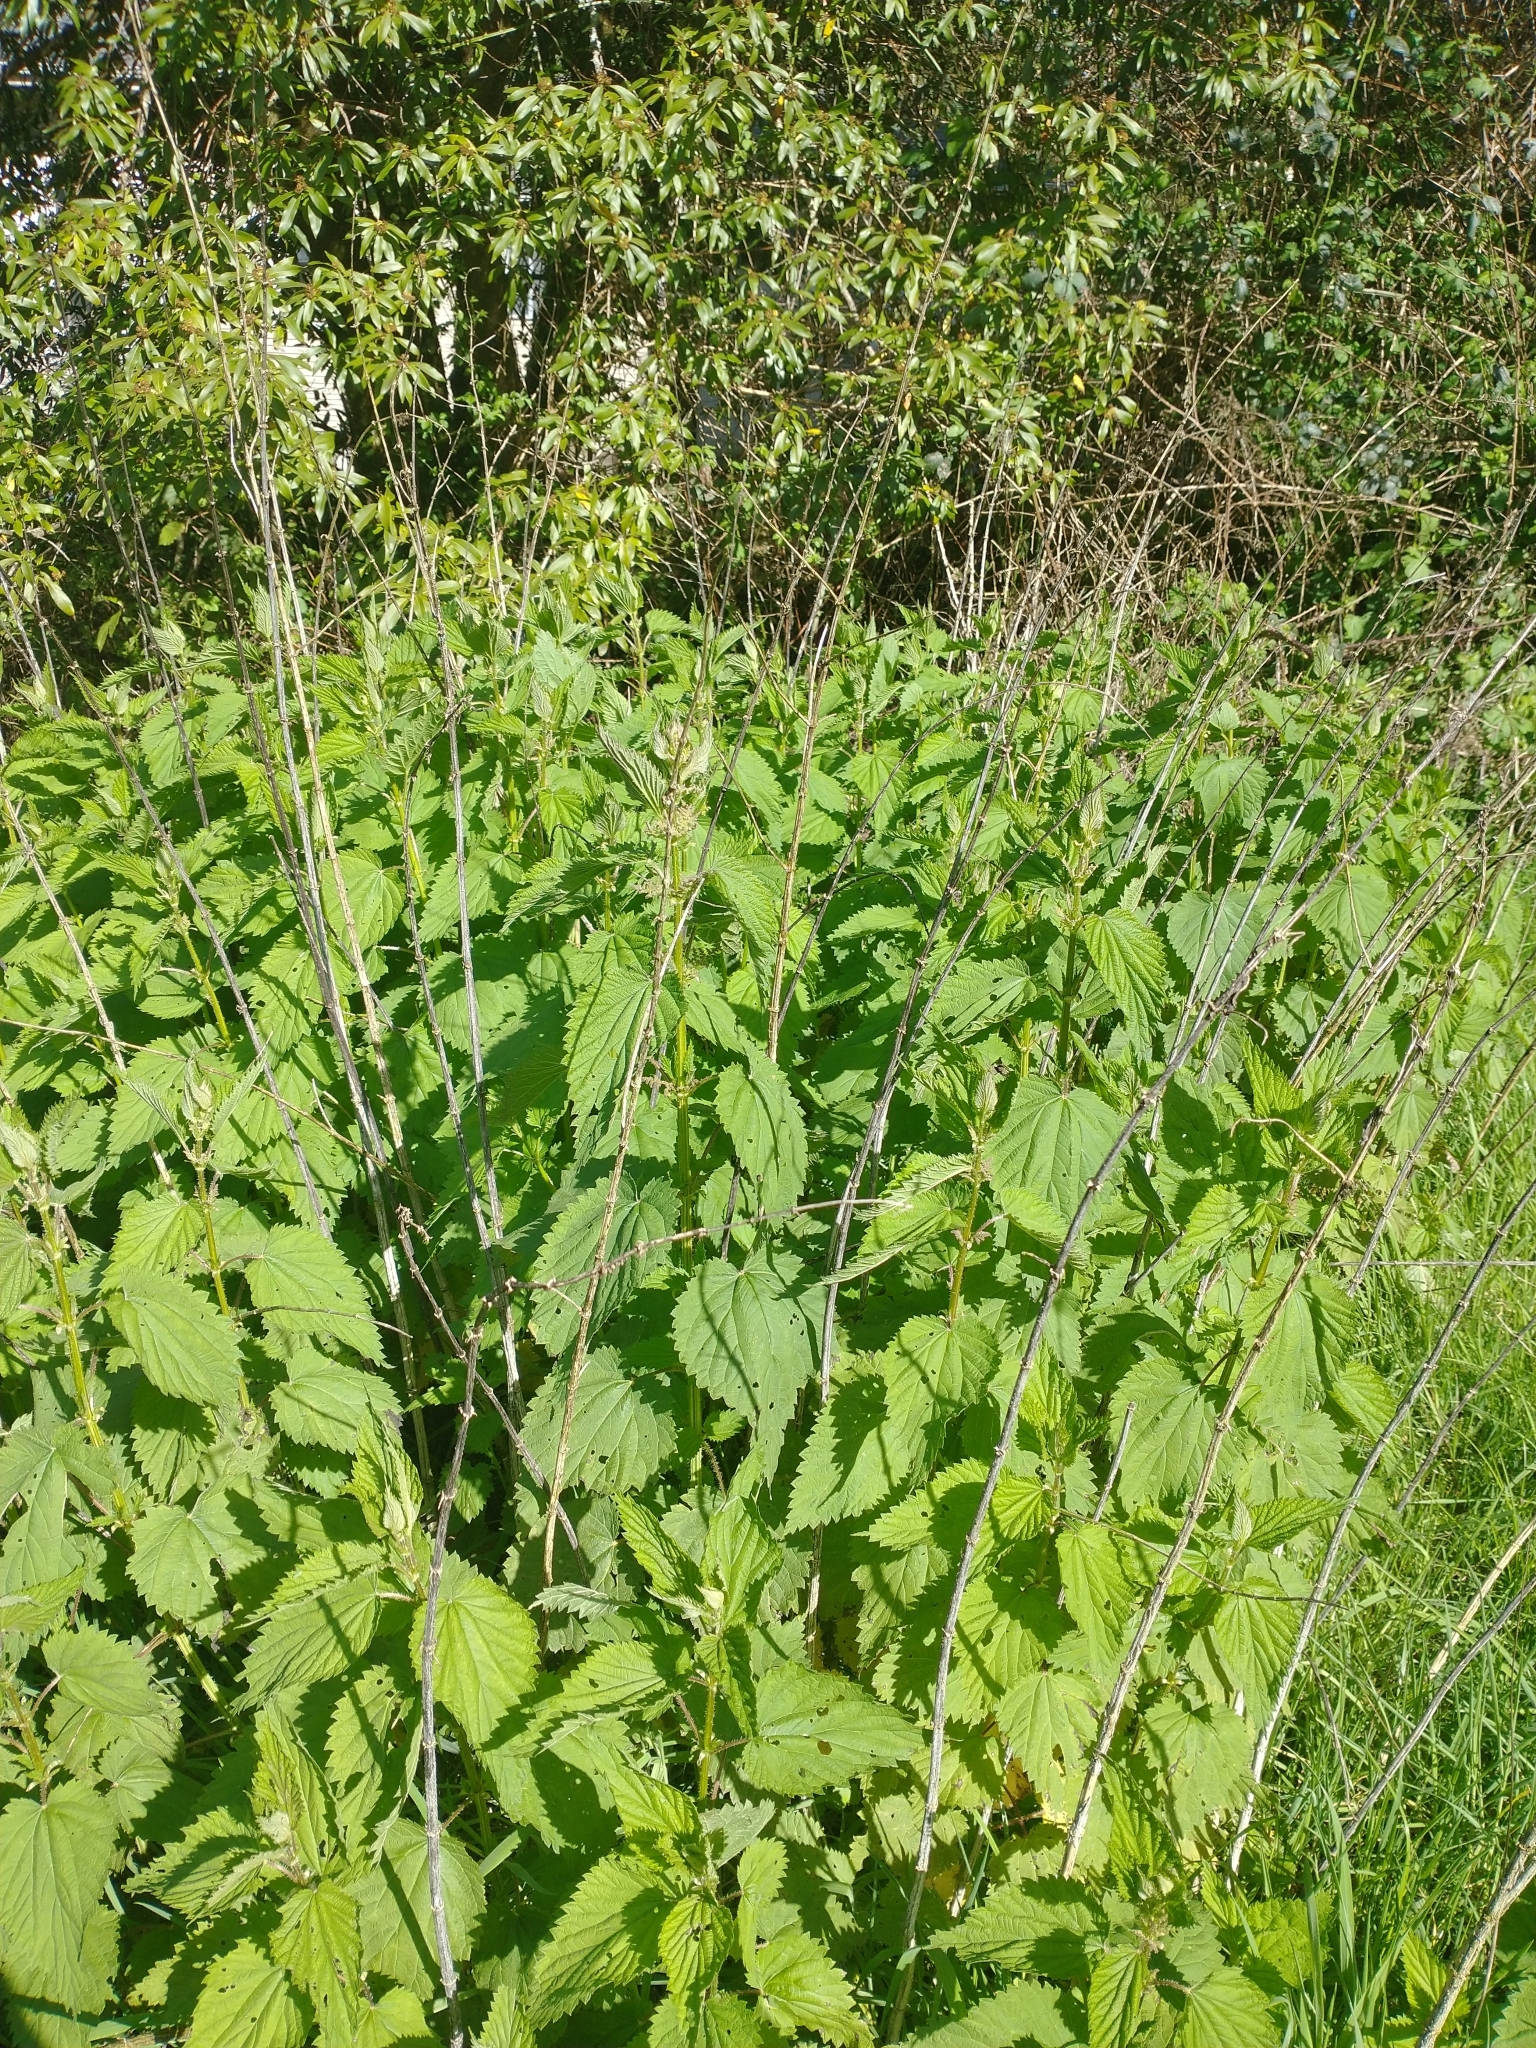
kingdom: Plantae
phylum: Tracheophyta
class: Magnoliopsida
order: Rosales
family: Urticaceae
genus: Urtica
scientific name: Urtica dioica
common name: Common nettle
